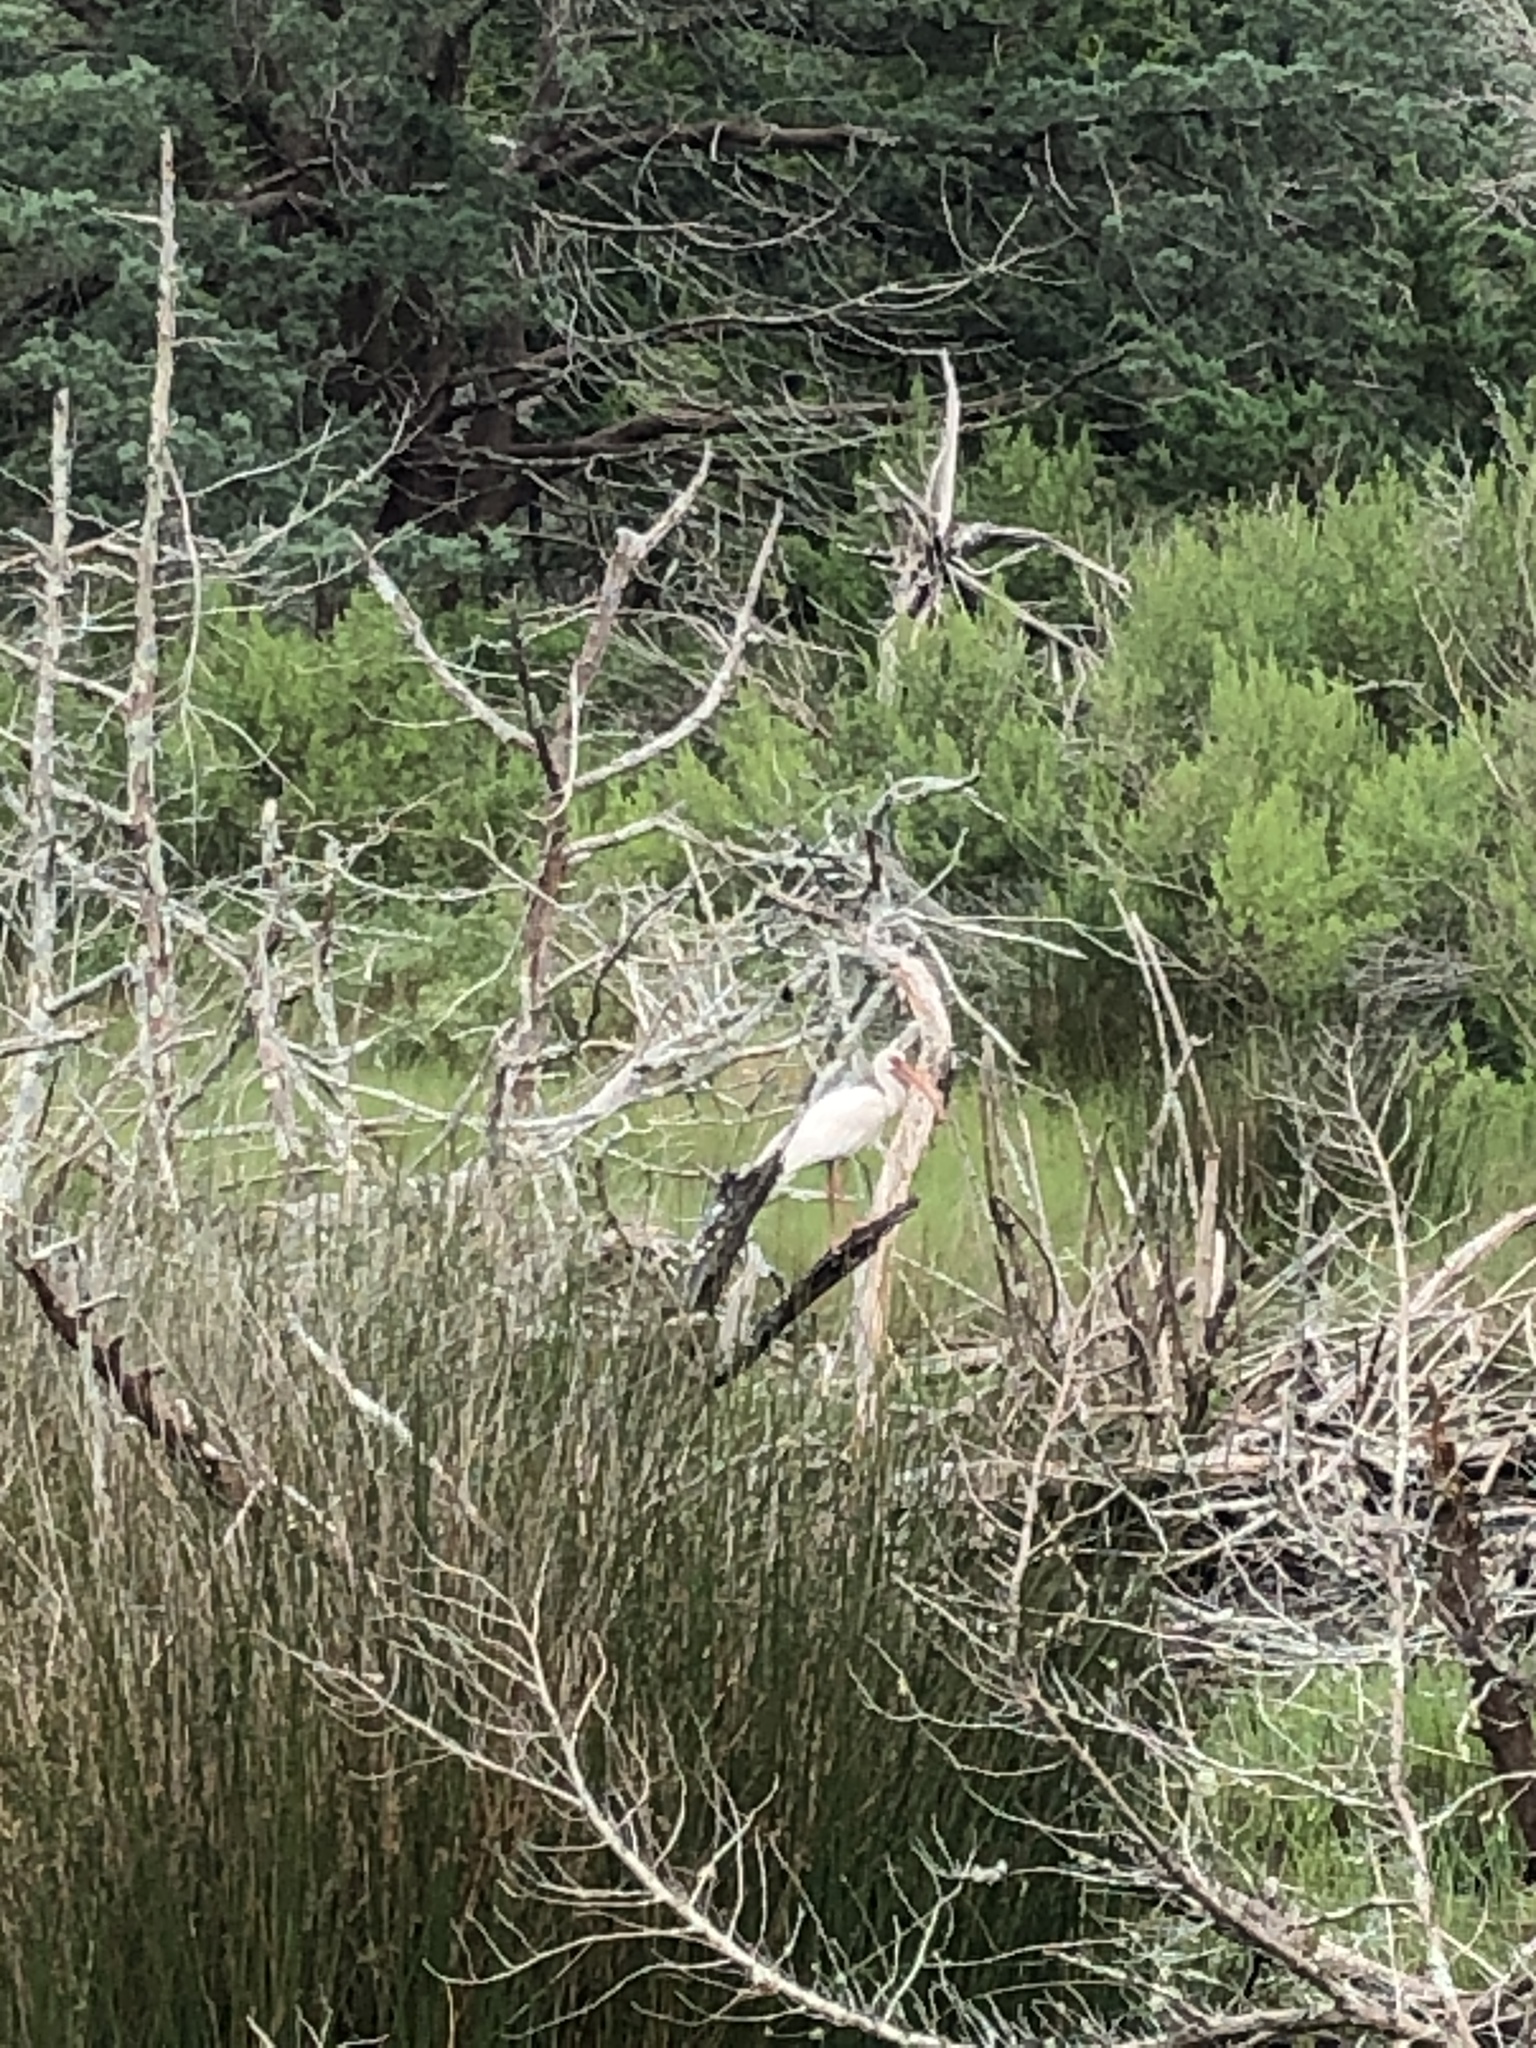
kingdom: Animalia
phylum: Chordata
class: Aves
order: Pelecaniformes
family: Threskiornithidae
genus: Eudocimus
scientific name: Eudocimus albus
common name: White ibis
